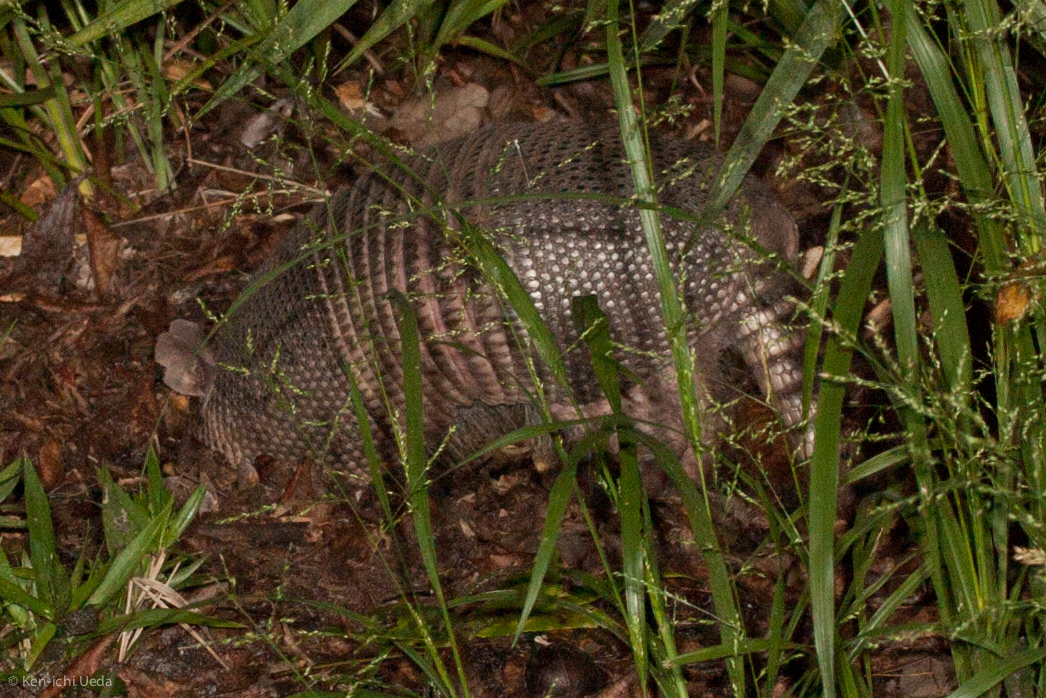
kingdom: Animalia
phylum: Chordata
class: Mammalia
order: Cingulata
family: Dasypodidae
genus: Dasypus
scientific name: Dasypus novemcinctus
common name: Nine-banded armadillo
